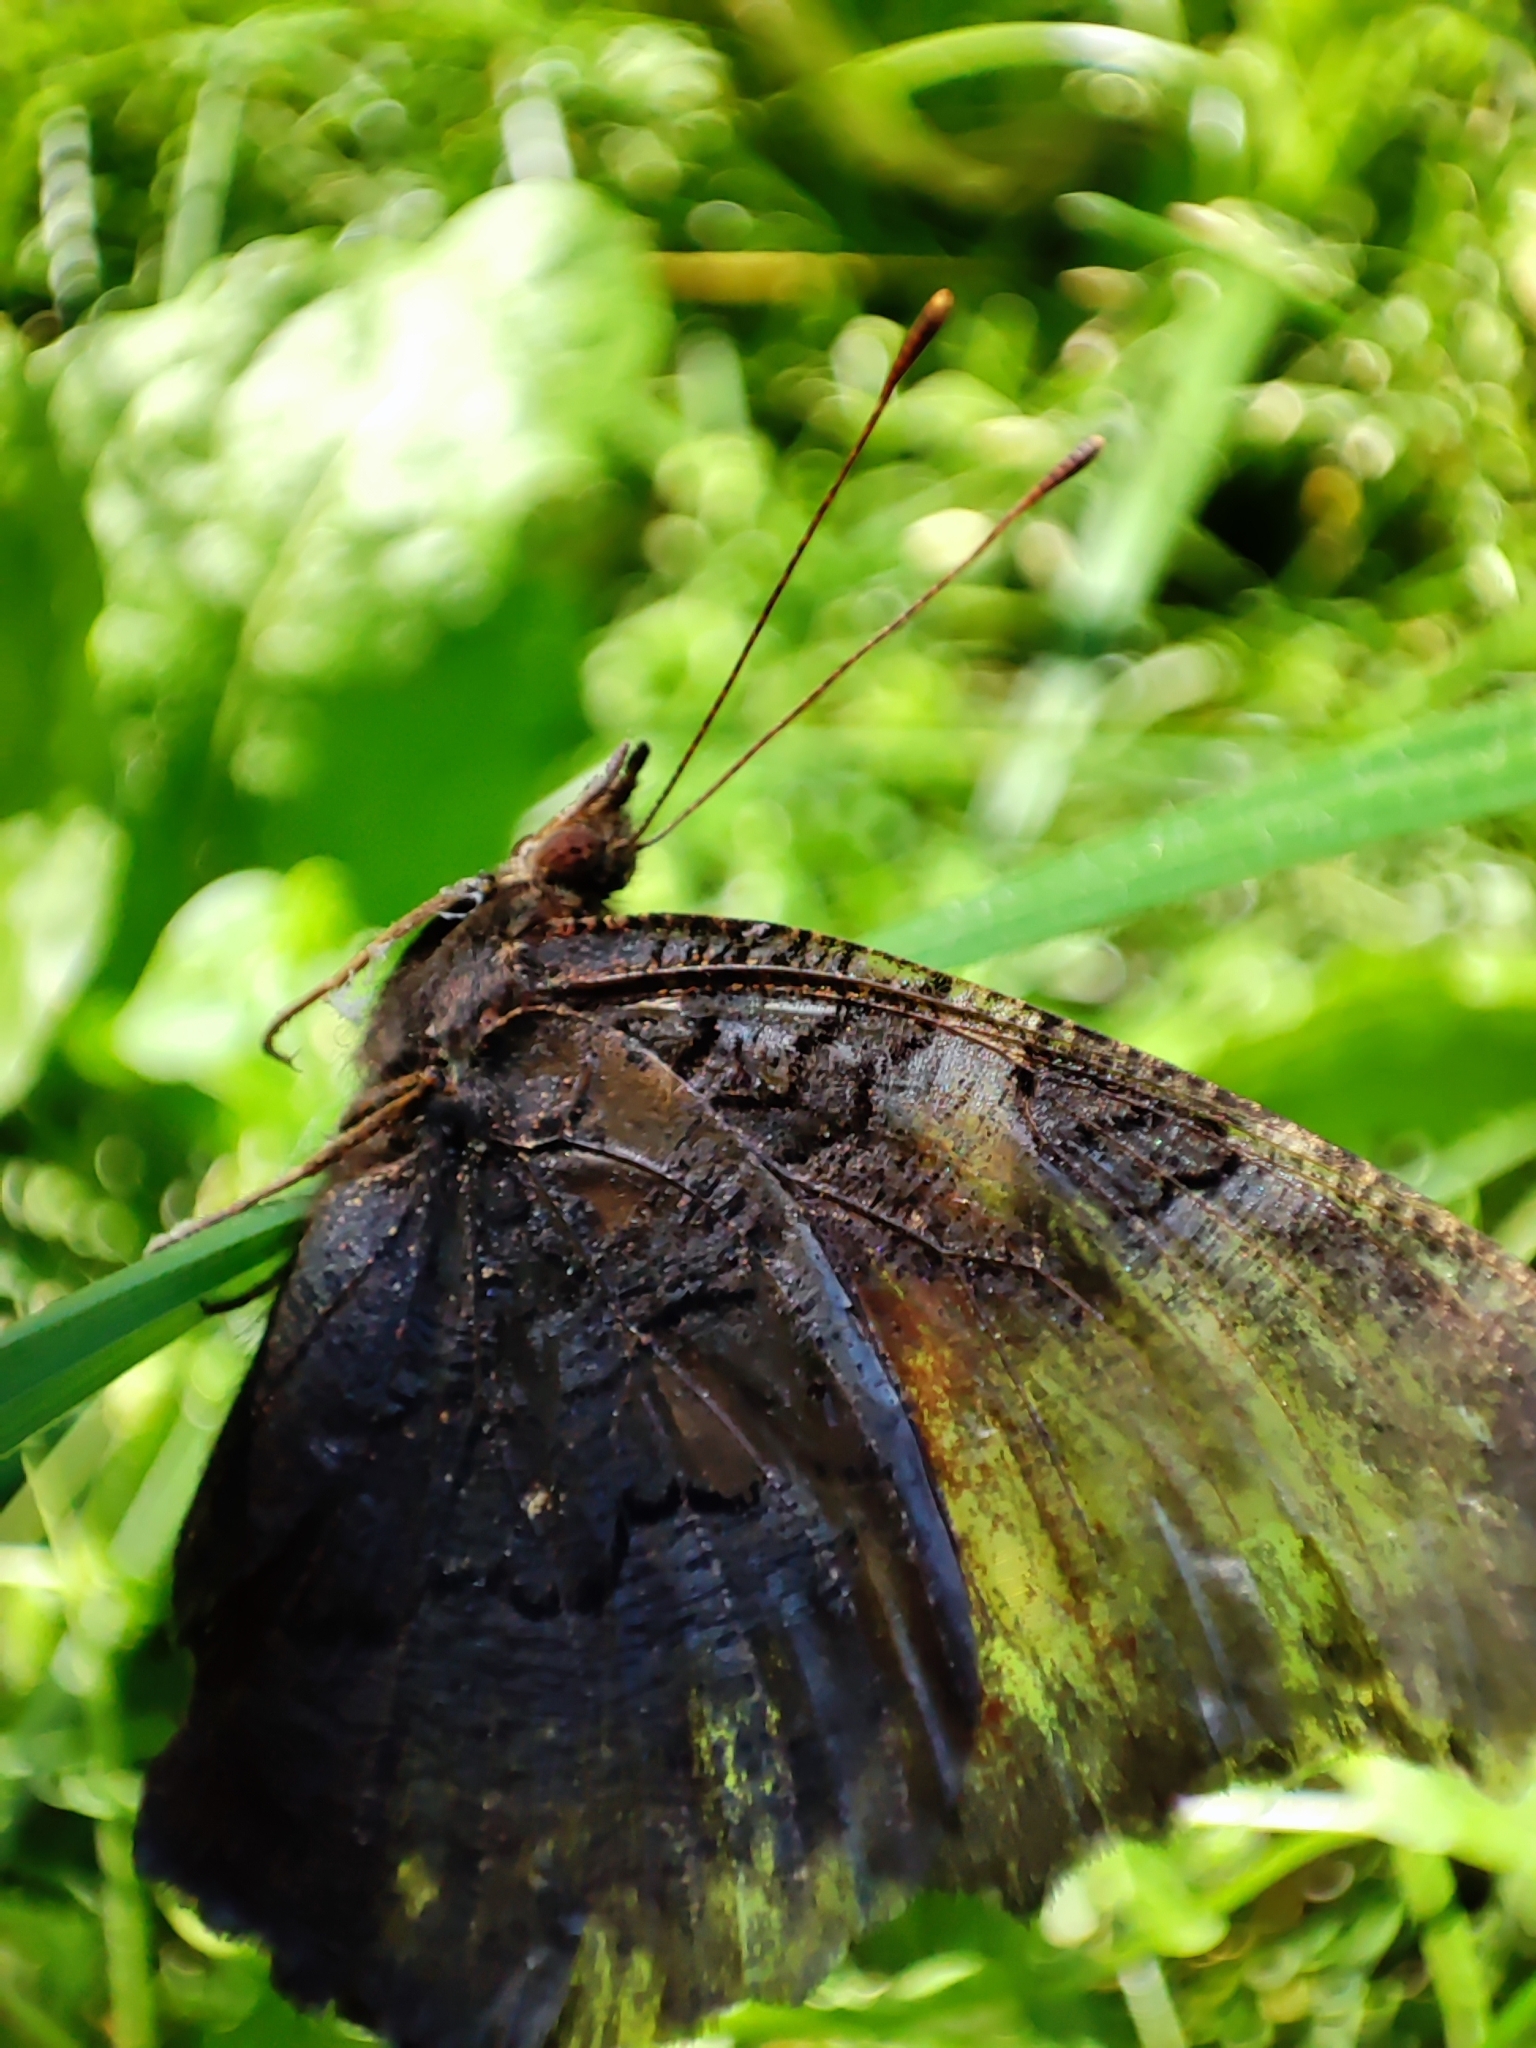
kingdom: Animalia
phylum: Arthropoda
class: Insecta
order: Lepidoptera
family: Nymphalidae
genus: Aglais
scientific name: Aglais io
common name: Peacock
